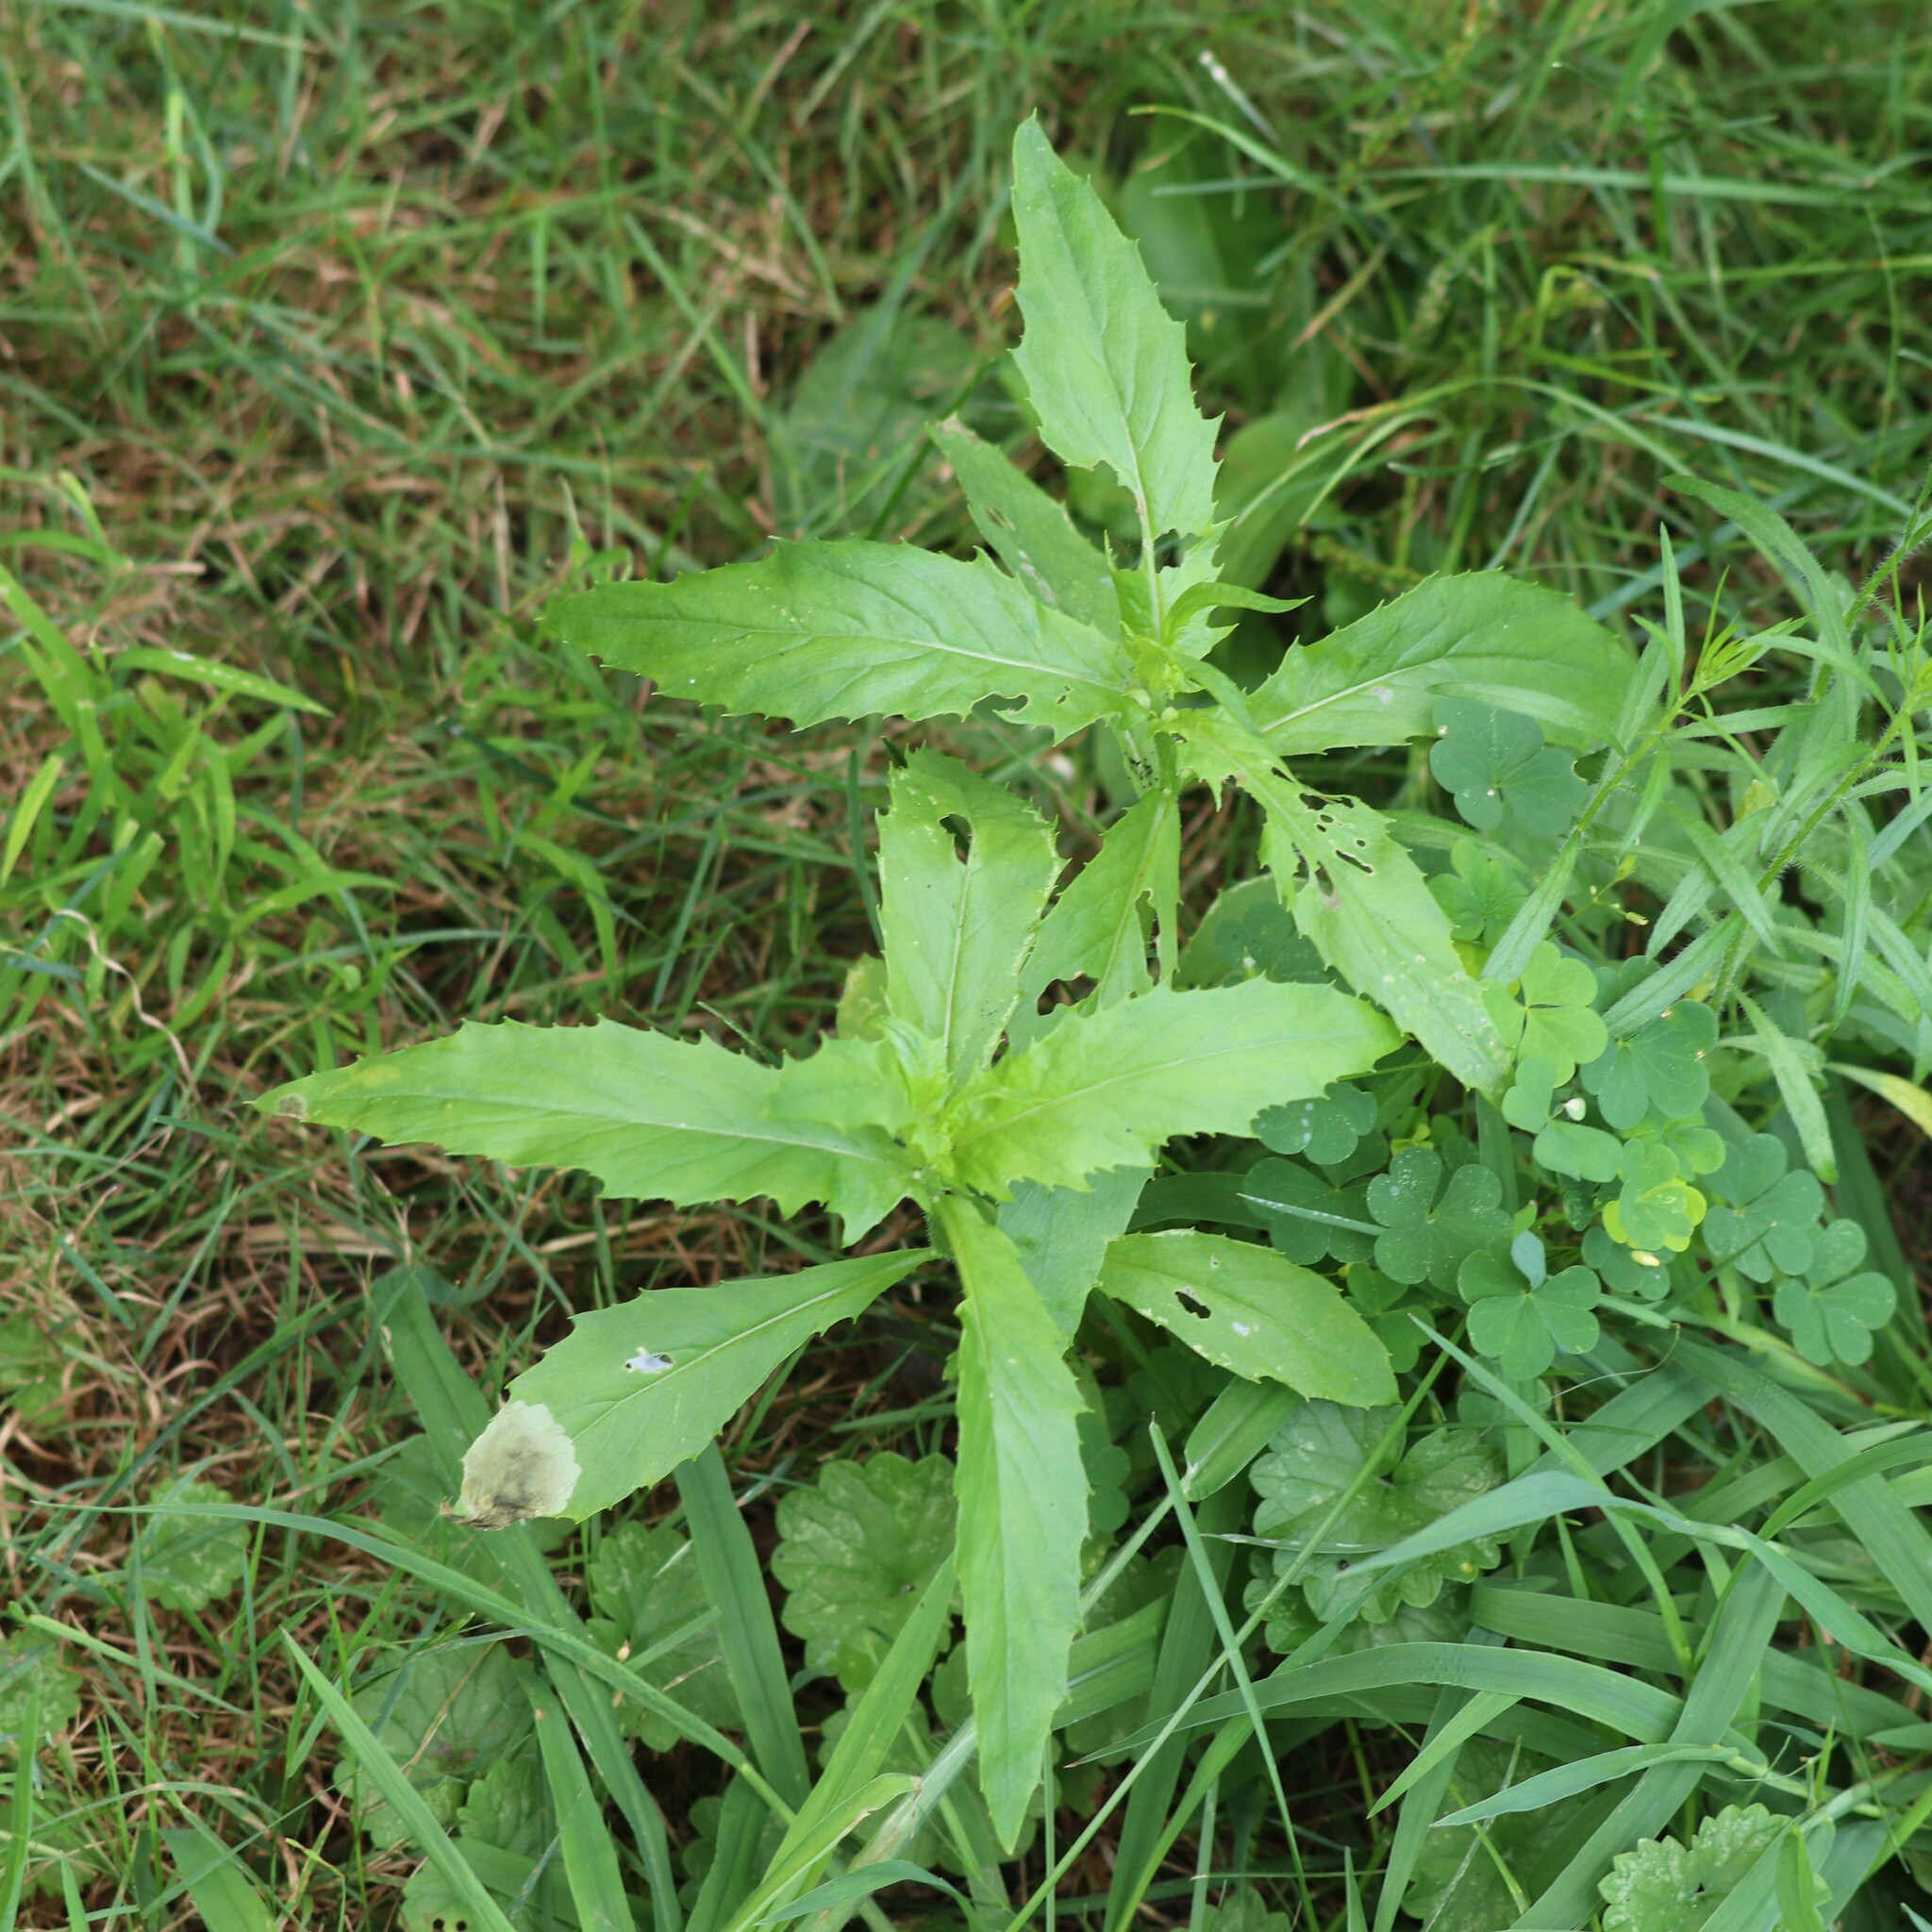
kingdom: Plantae
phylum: Tracheophyta
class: Magnoliopsida
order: Asterales
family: Asteraceae
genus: Erechtites
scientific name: Erechtites hieraciifolius
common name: American burnweed
